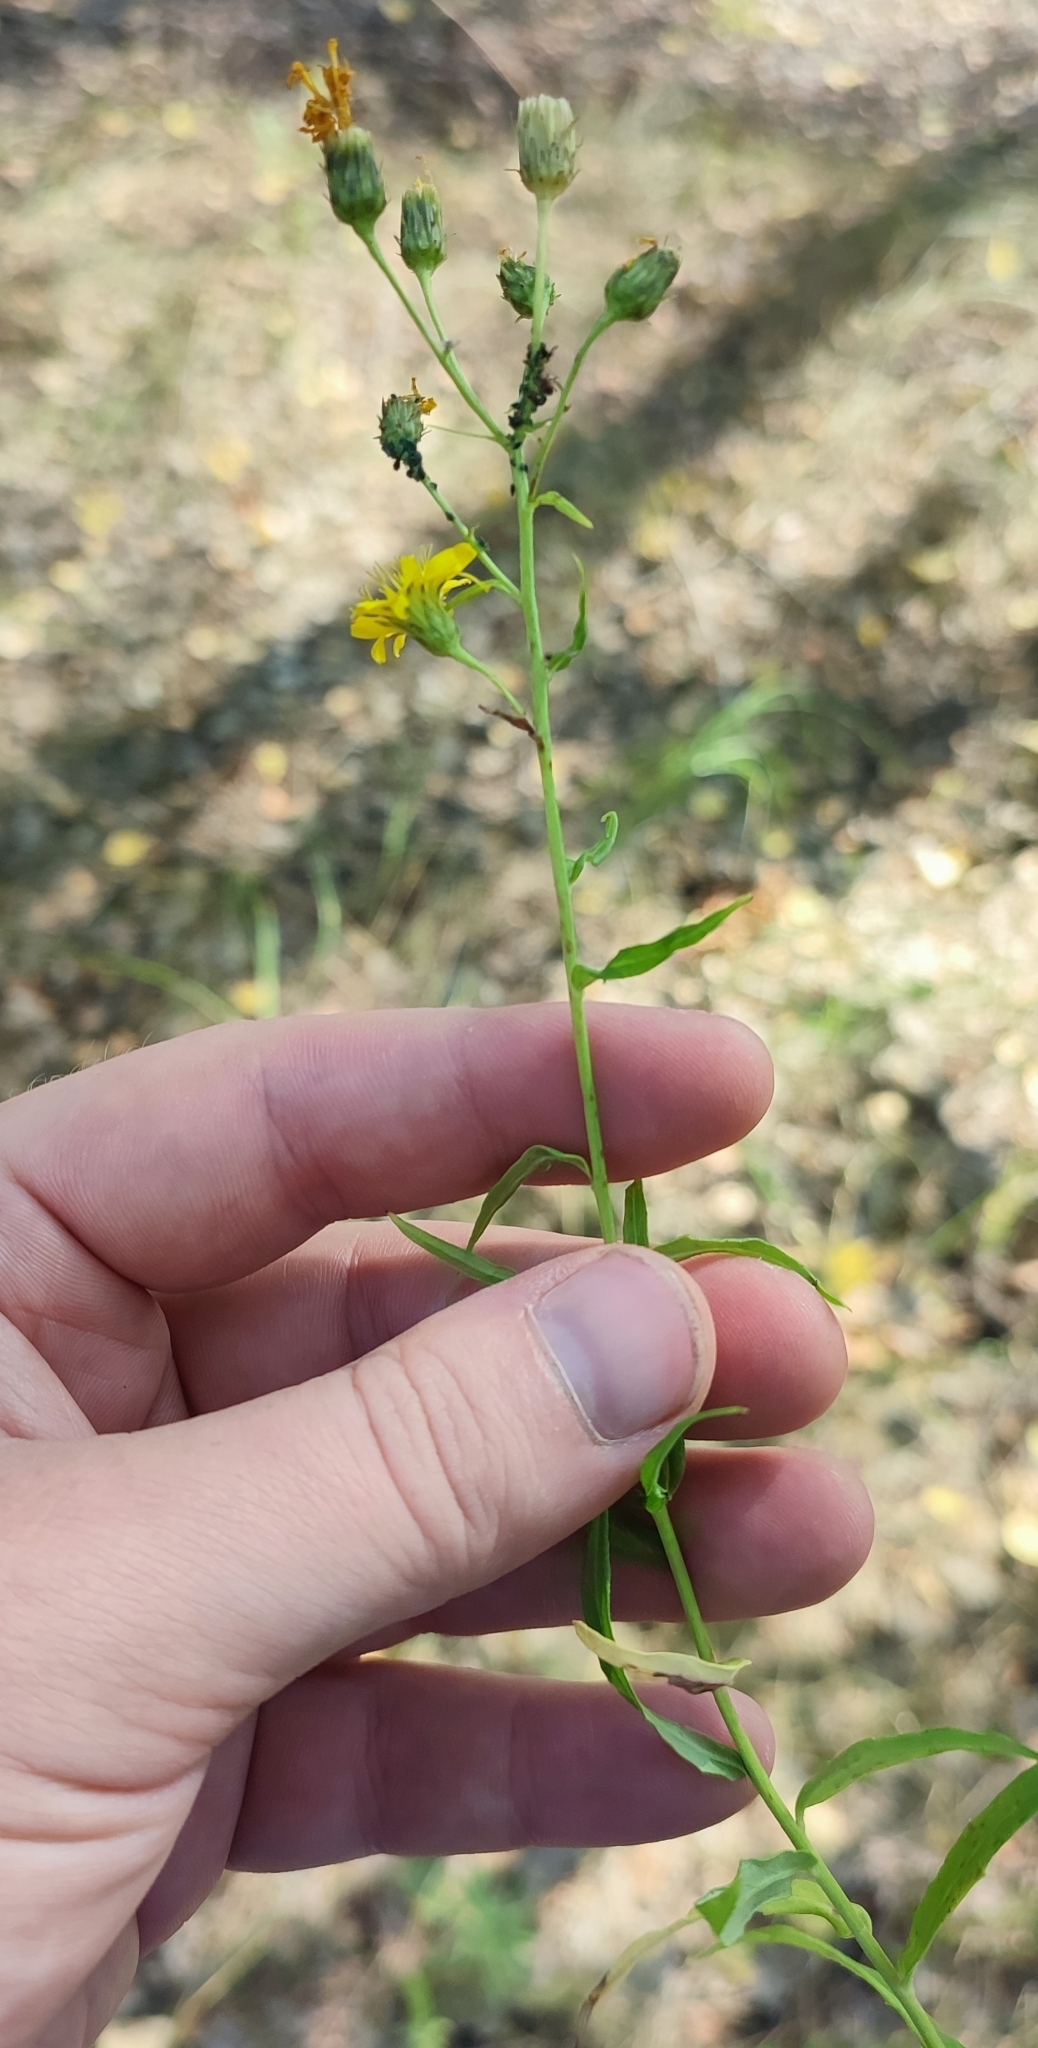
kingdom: Plantae
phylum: Tracheophyta
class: Magnoliopsida
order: Asterales
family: Asteraceae
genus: Hieracium
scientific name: Hieracium umbellatum
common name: Northern hawkweed
